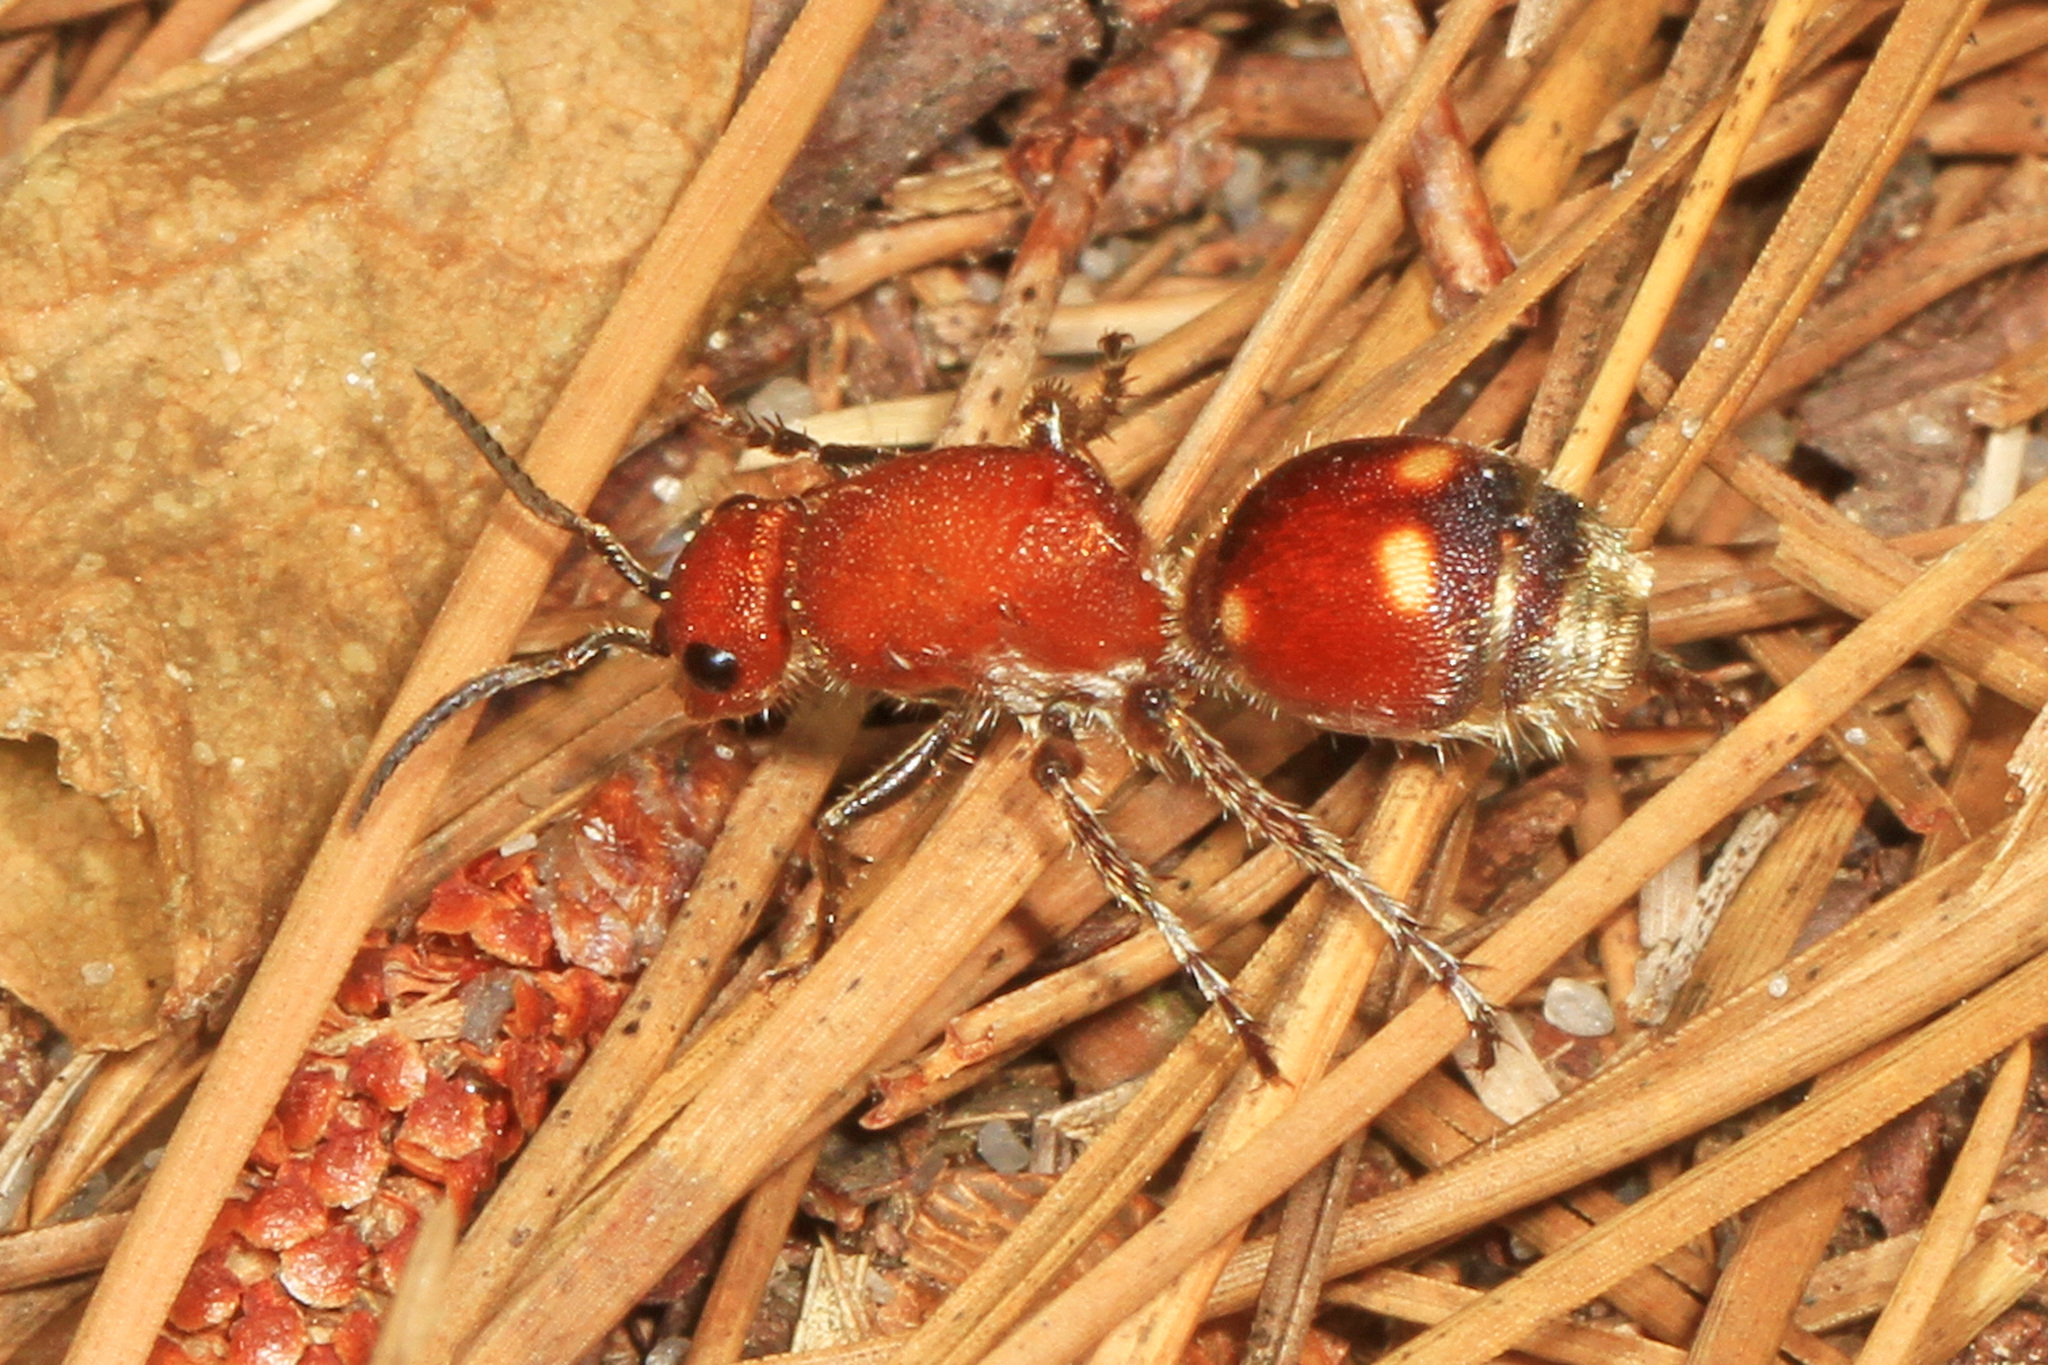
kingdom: Animalia
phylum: Arthropoda
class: Insecta
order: Hymenoptera
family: Mutillidae
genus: Dasymutilla
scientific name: Dasymutilla
